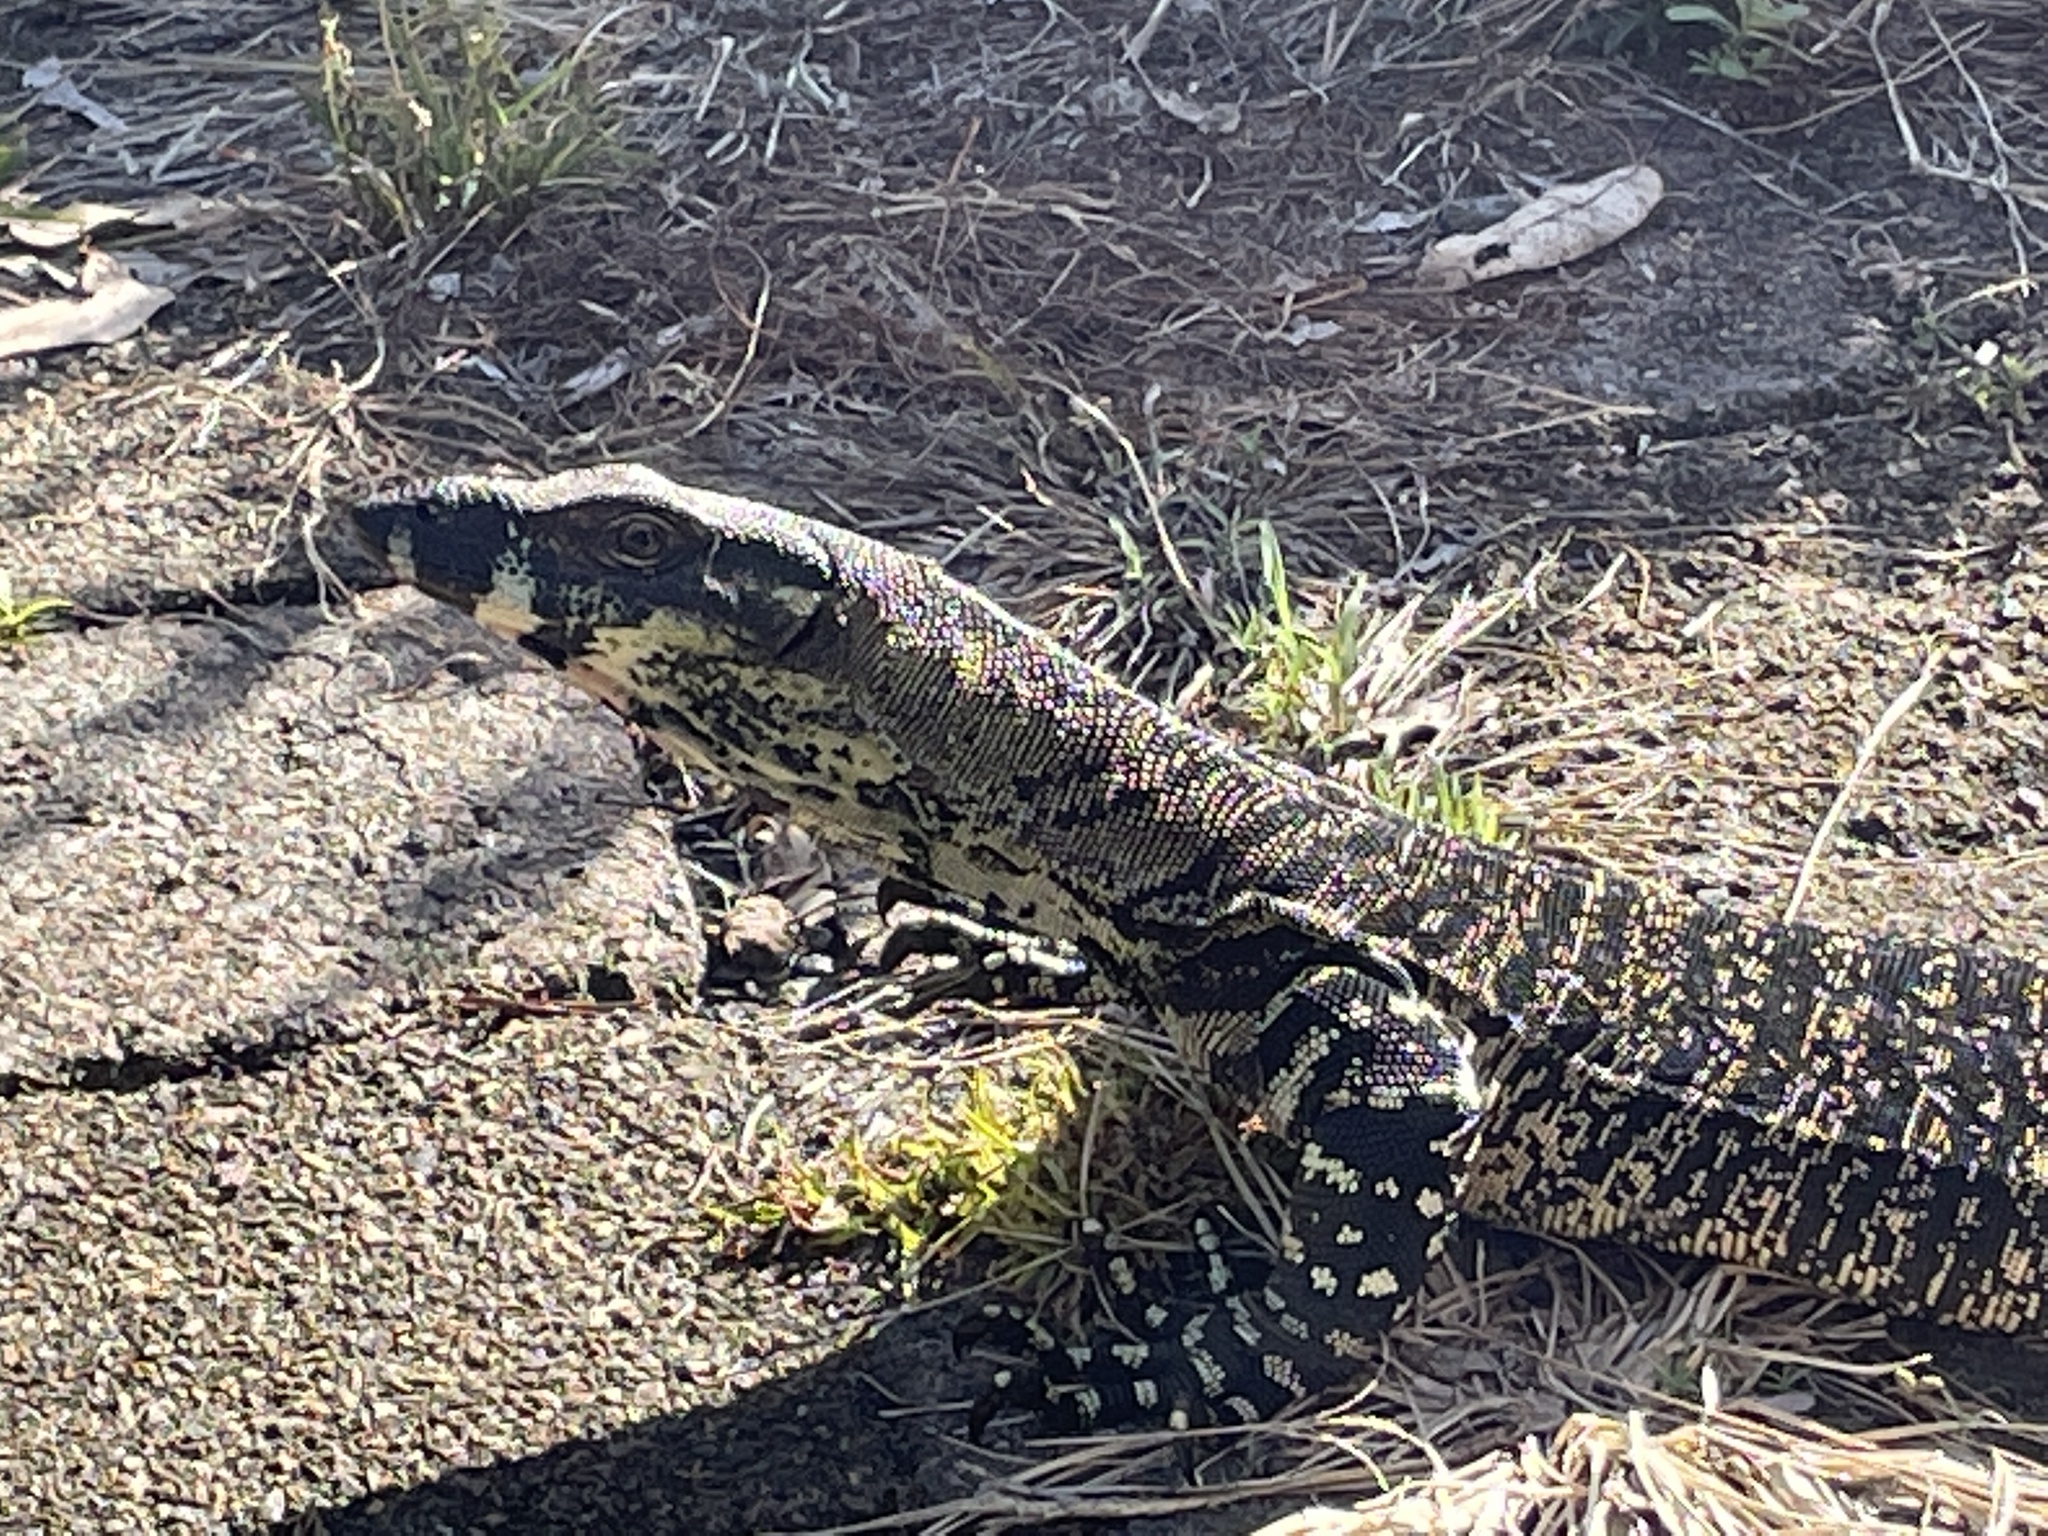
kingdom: Animalia
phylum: Chordata
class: Squamata
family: Varanidae
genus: Varanus
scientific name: Varanus varius
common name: Lace monitor
